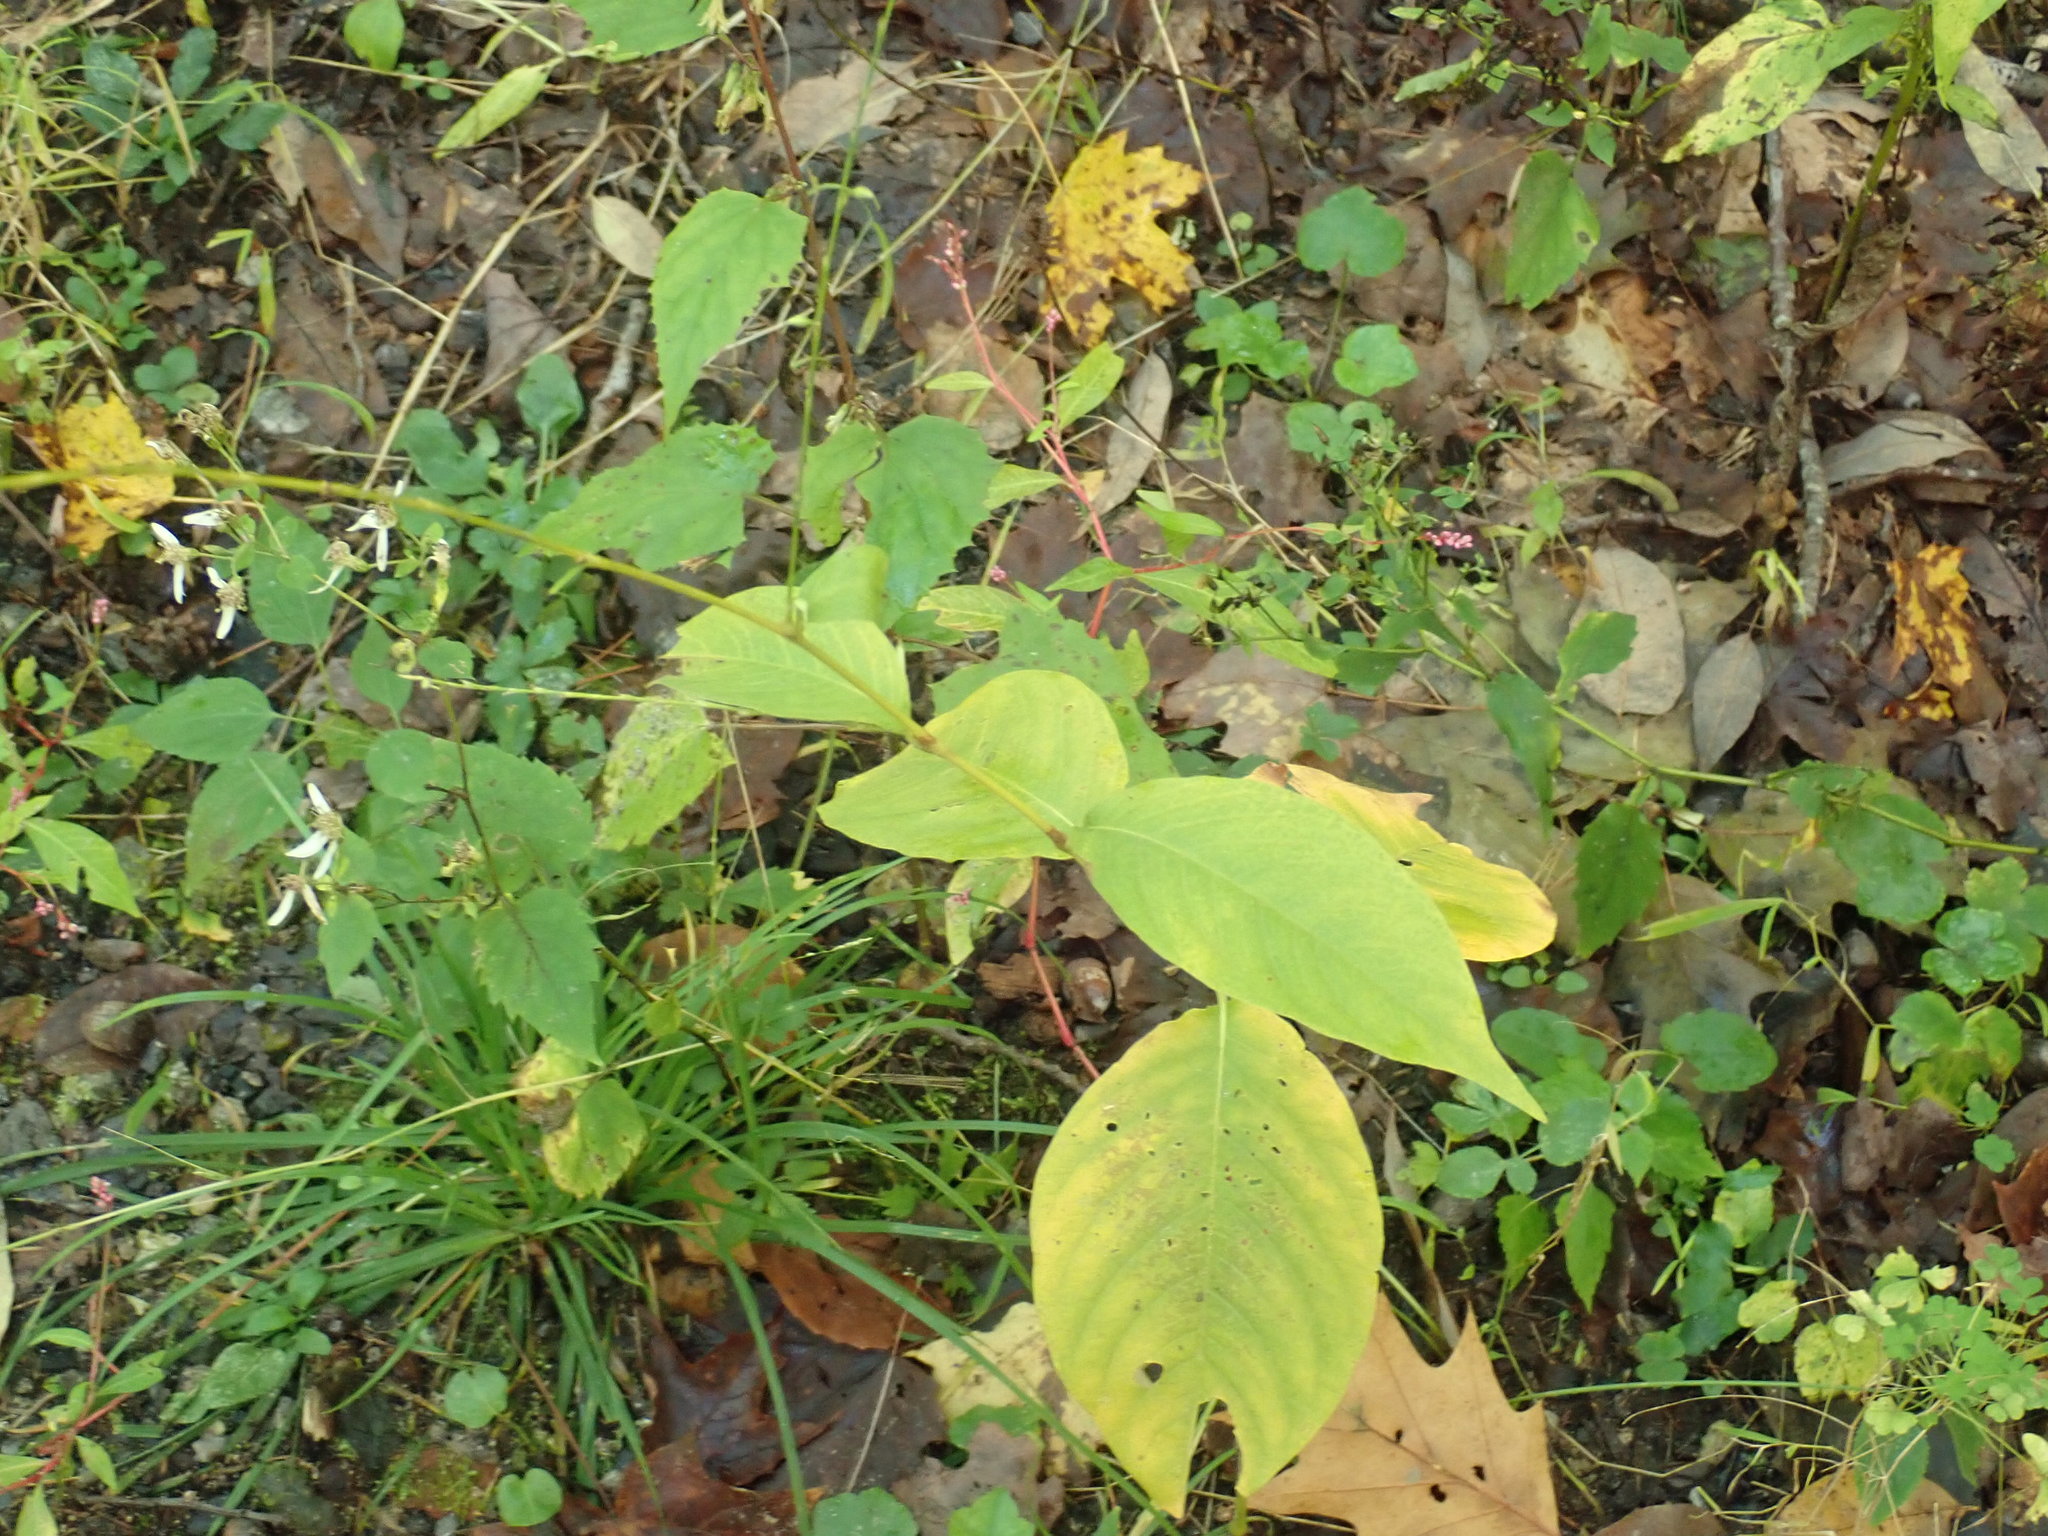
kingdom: Plantae
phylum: Tracheophyta
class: Magnoliopsida
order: Caryophyllales
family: Polygonaceae
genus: Persicaria
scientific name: Persicaria virginiana
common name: Jumpseed
